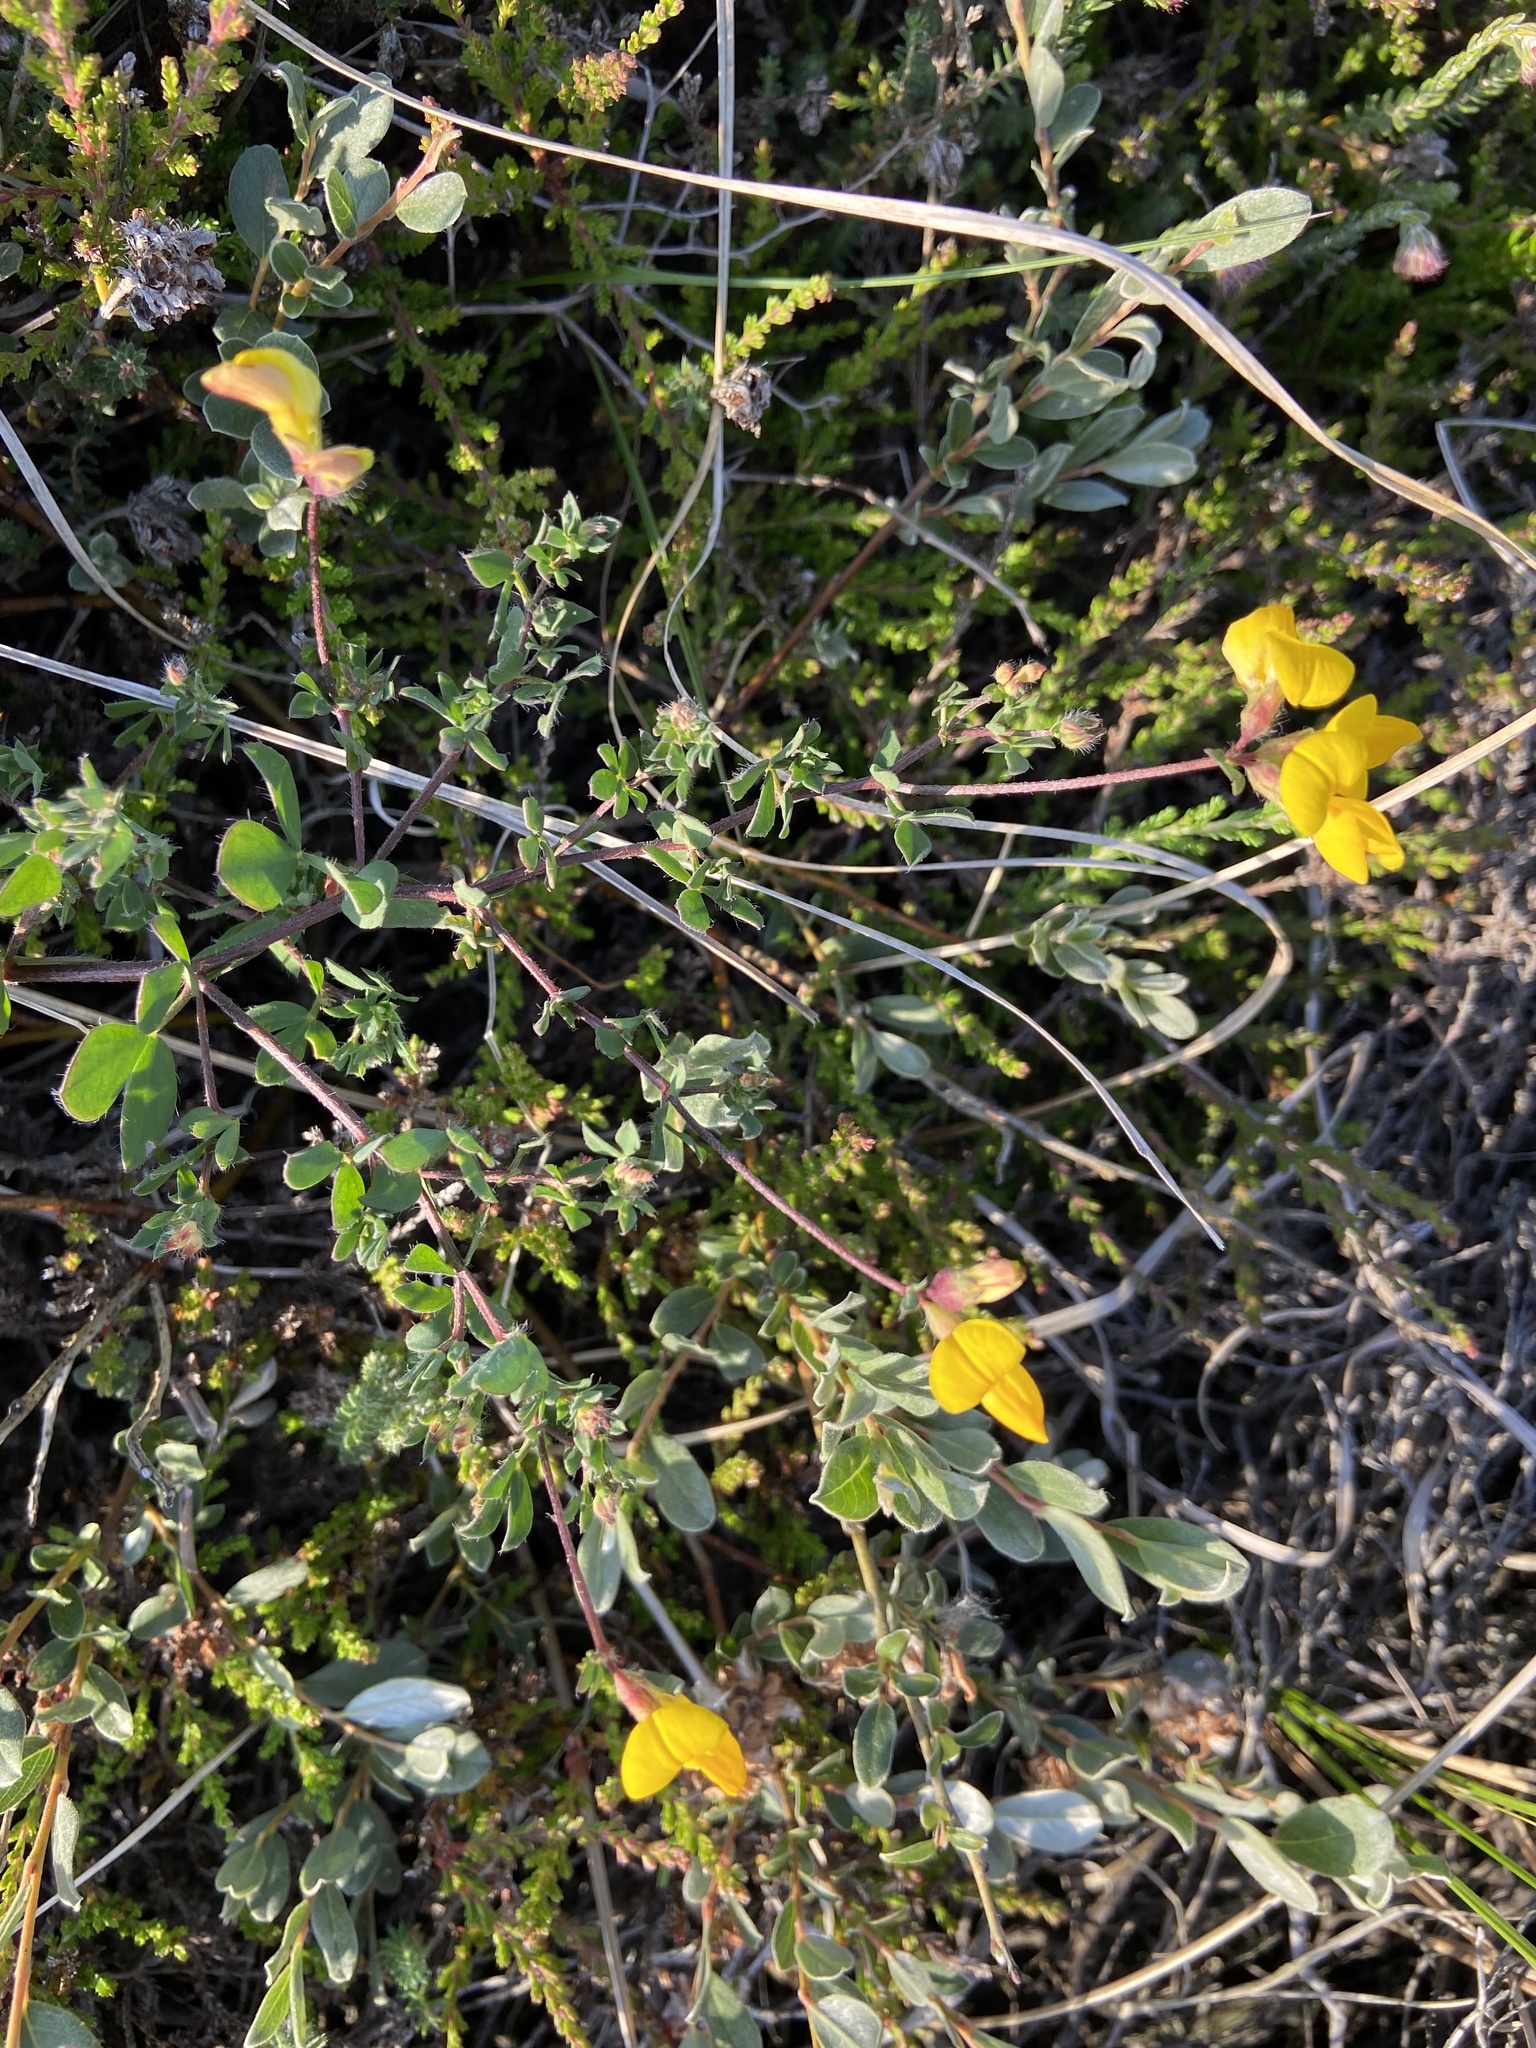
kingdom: Plantae
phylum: Tracheophyta
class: Magnoliopsida
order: Fabales
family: Fabaceae
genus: Lotus
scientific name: Lotus corniculatus
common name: Common bird's-foot-trefoil
